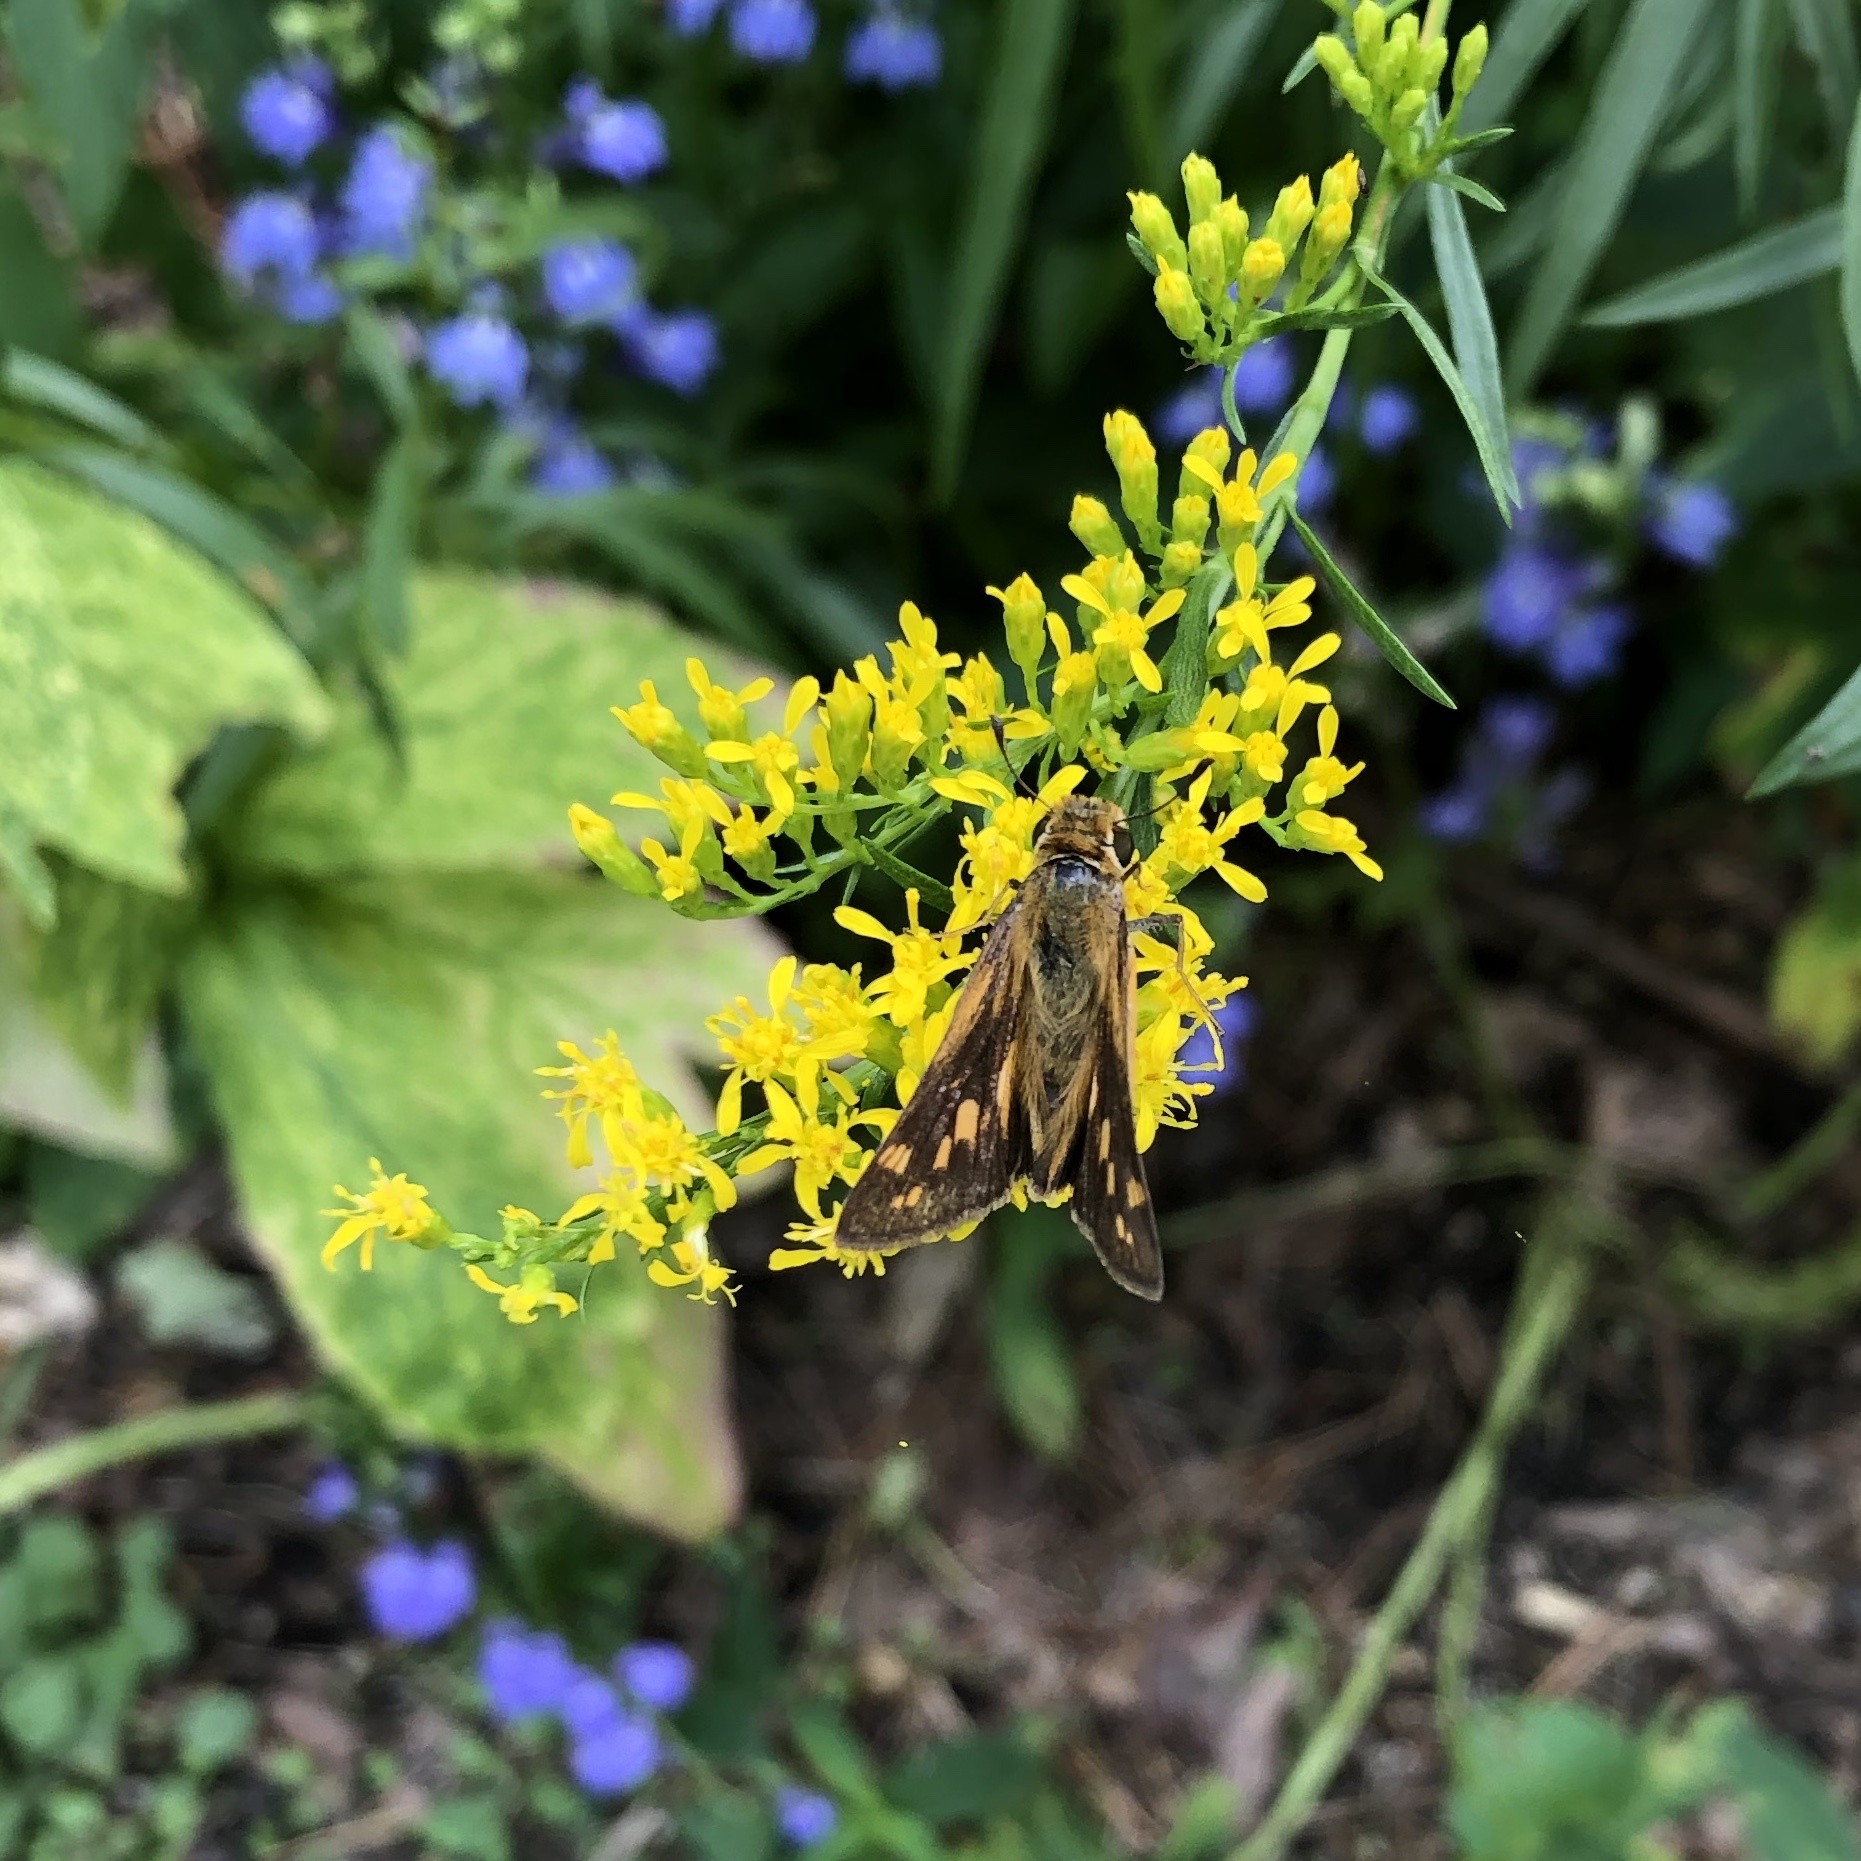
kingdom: Animalia
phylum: Arthropoda
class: Insecta
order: Lepidoptera
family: Hesperiidae
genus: Hylephila
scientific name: Hylephila phyleus
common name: Fiery skipper
